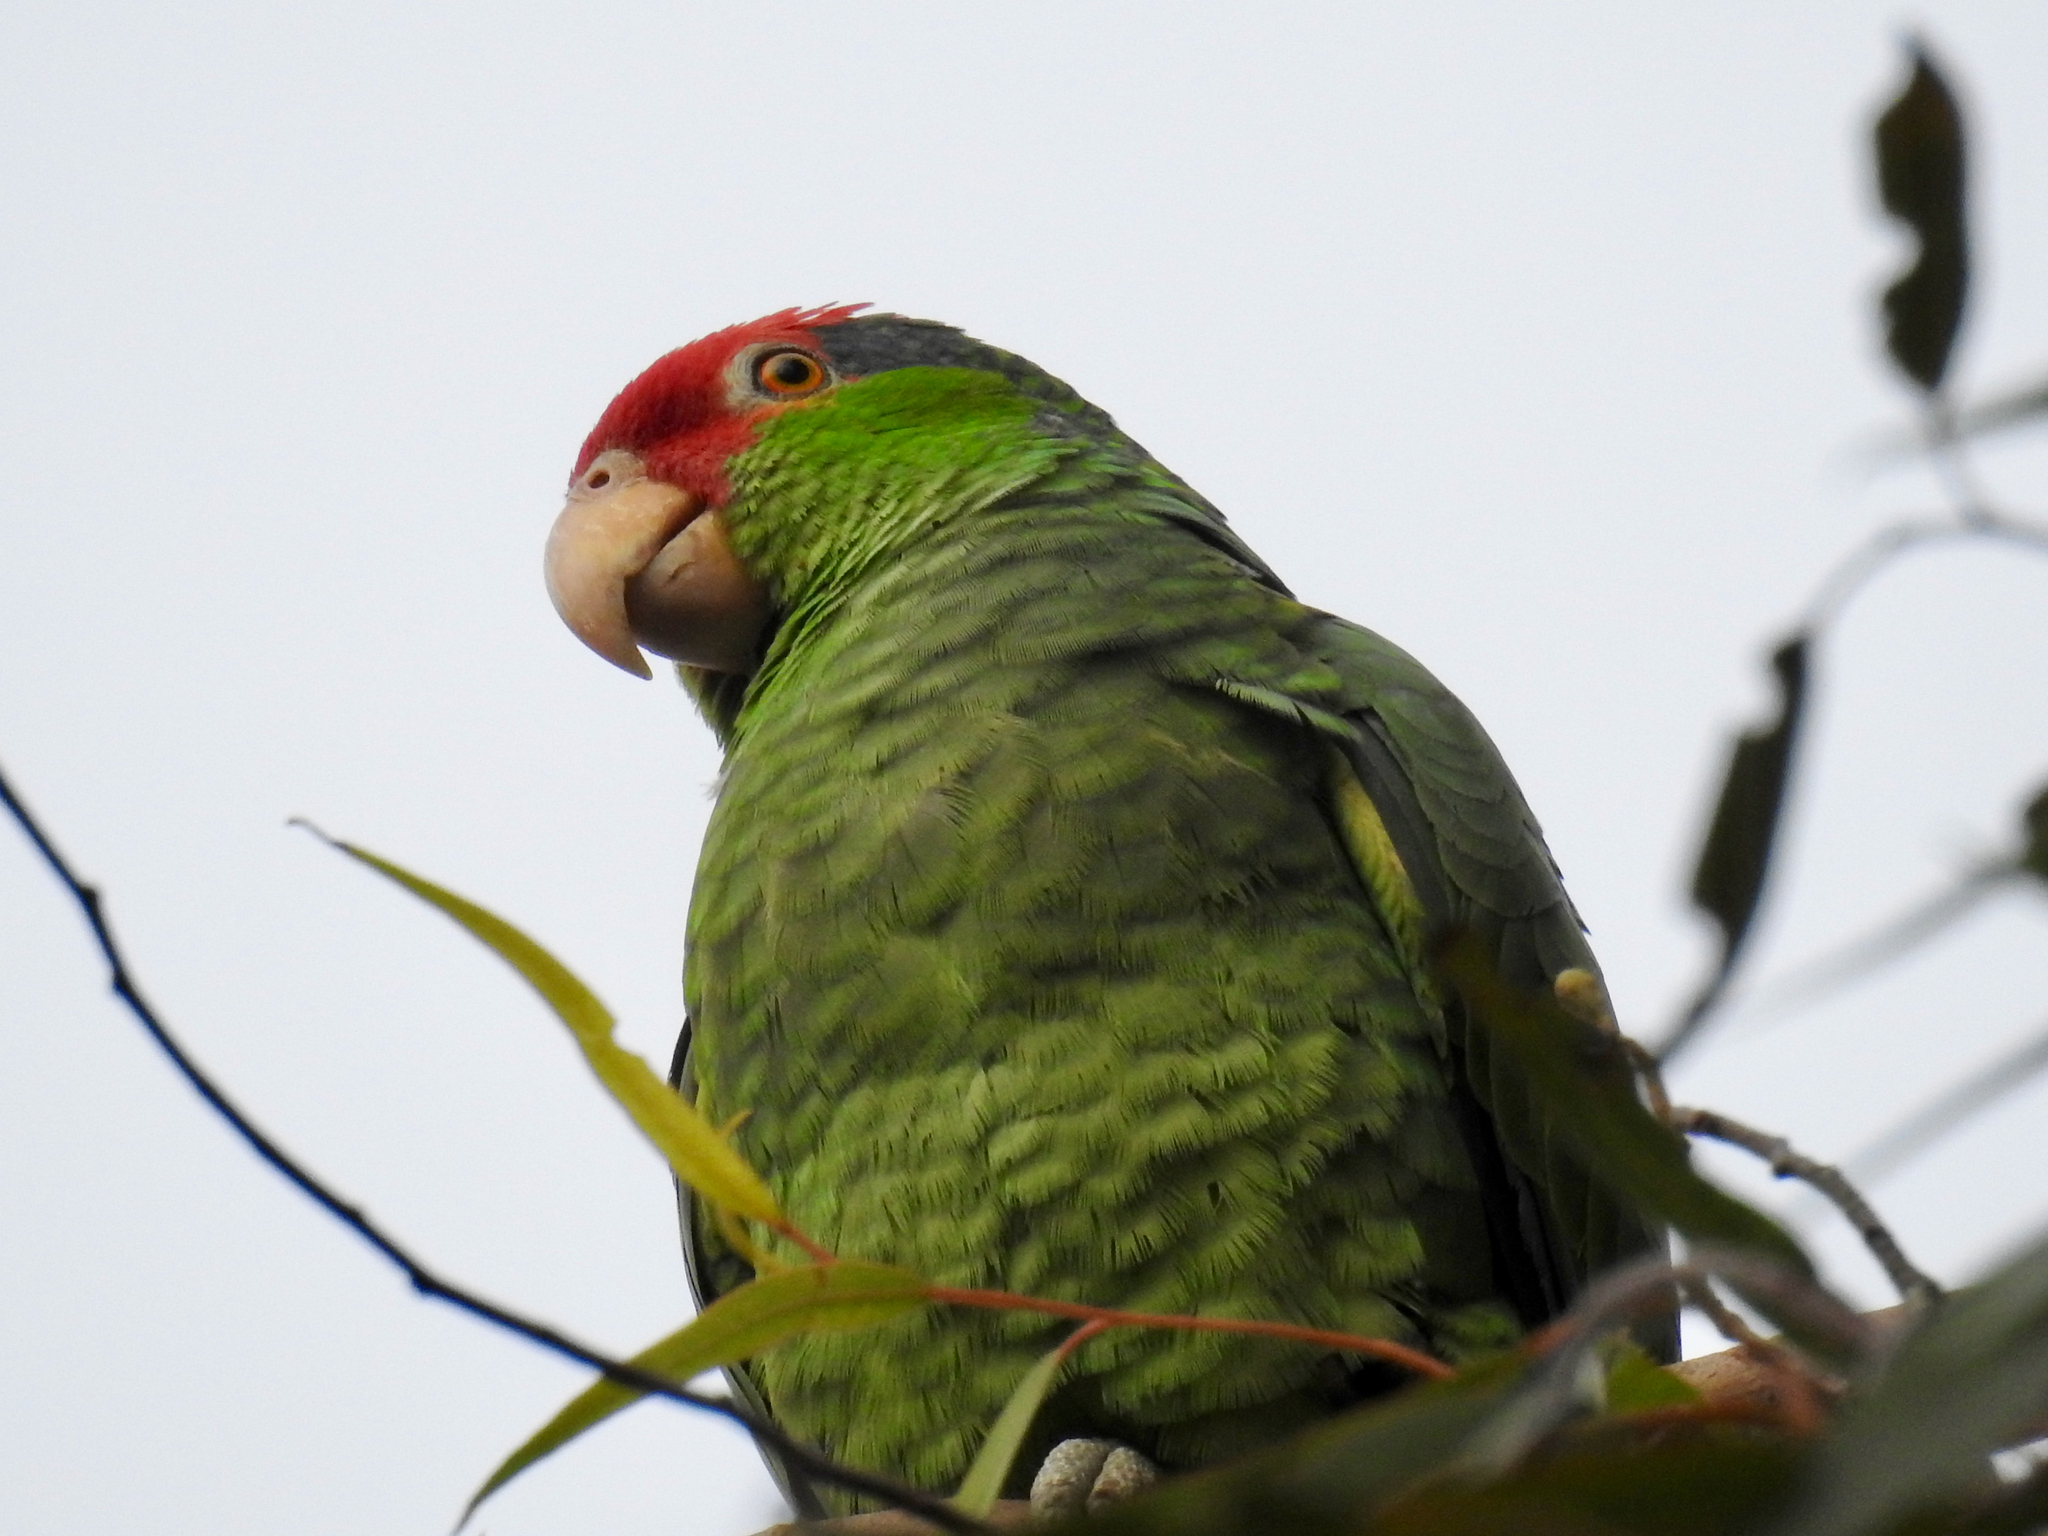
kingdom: Animalia
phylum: Chordata
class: Aves
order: Psittaciformes
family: Psittacidae
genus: Amazona
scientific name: Amazona viridigenalis
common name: Red-crowned amazon
